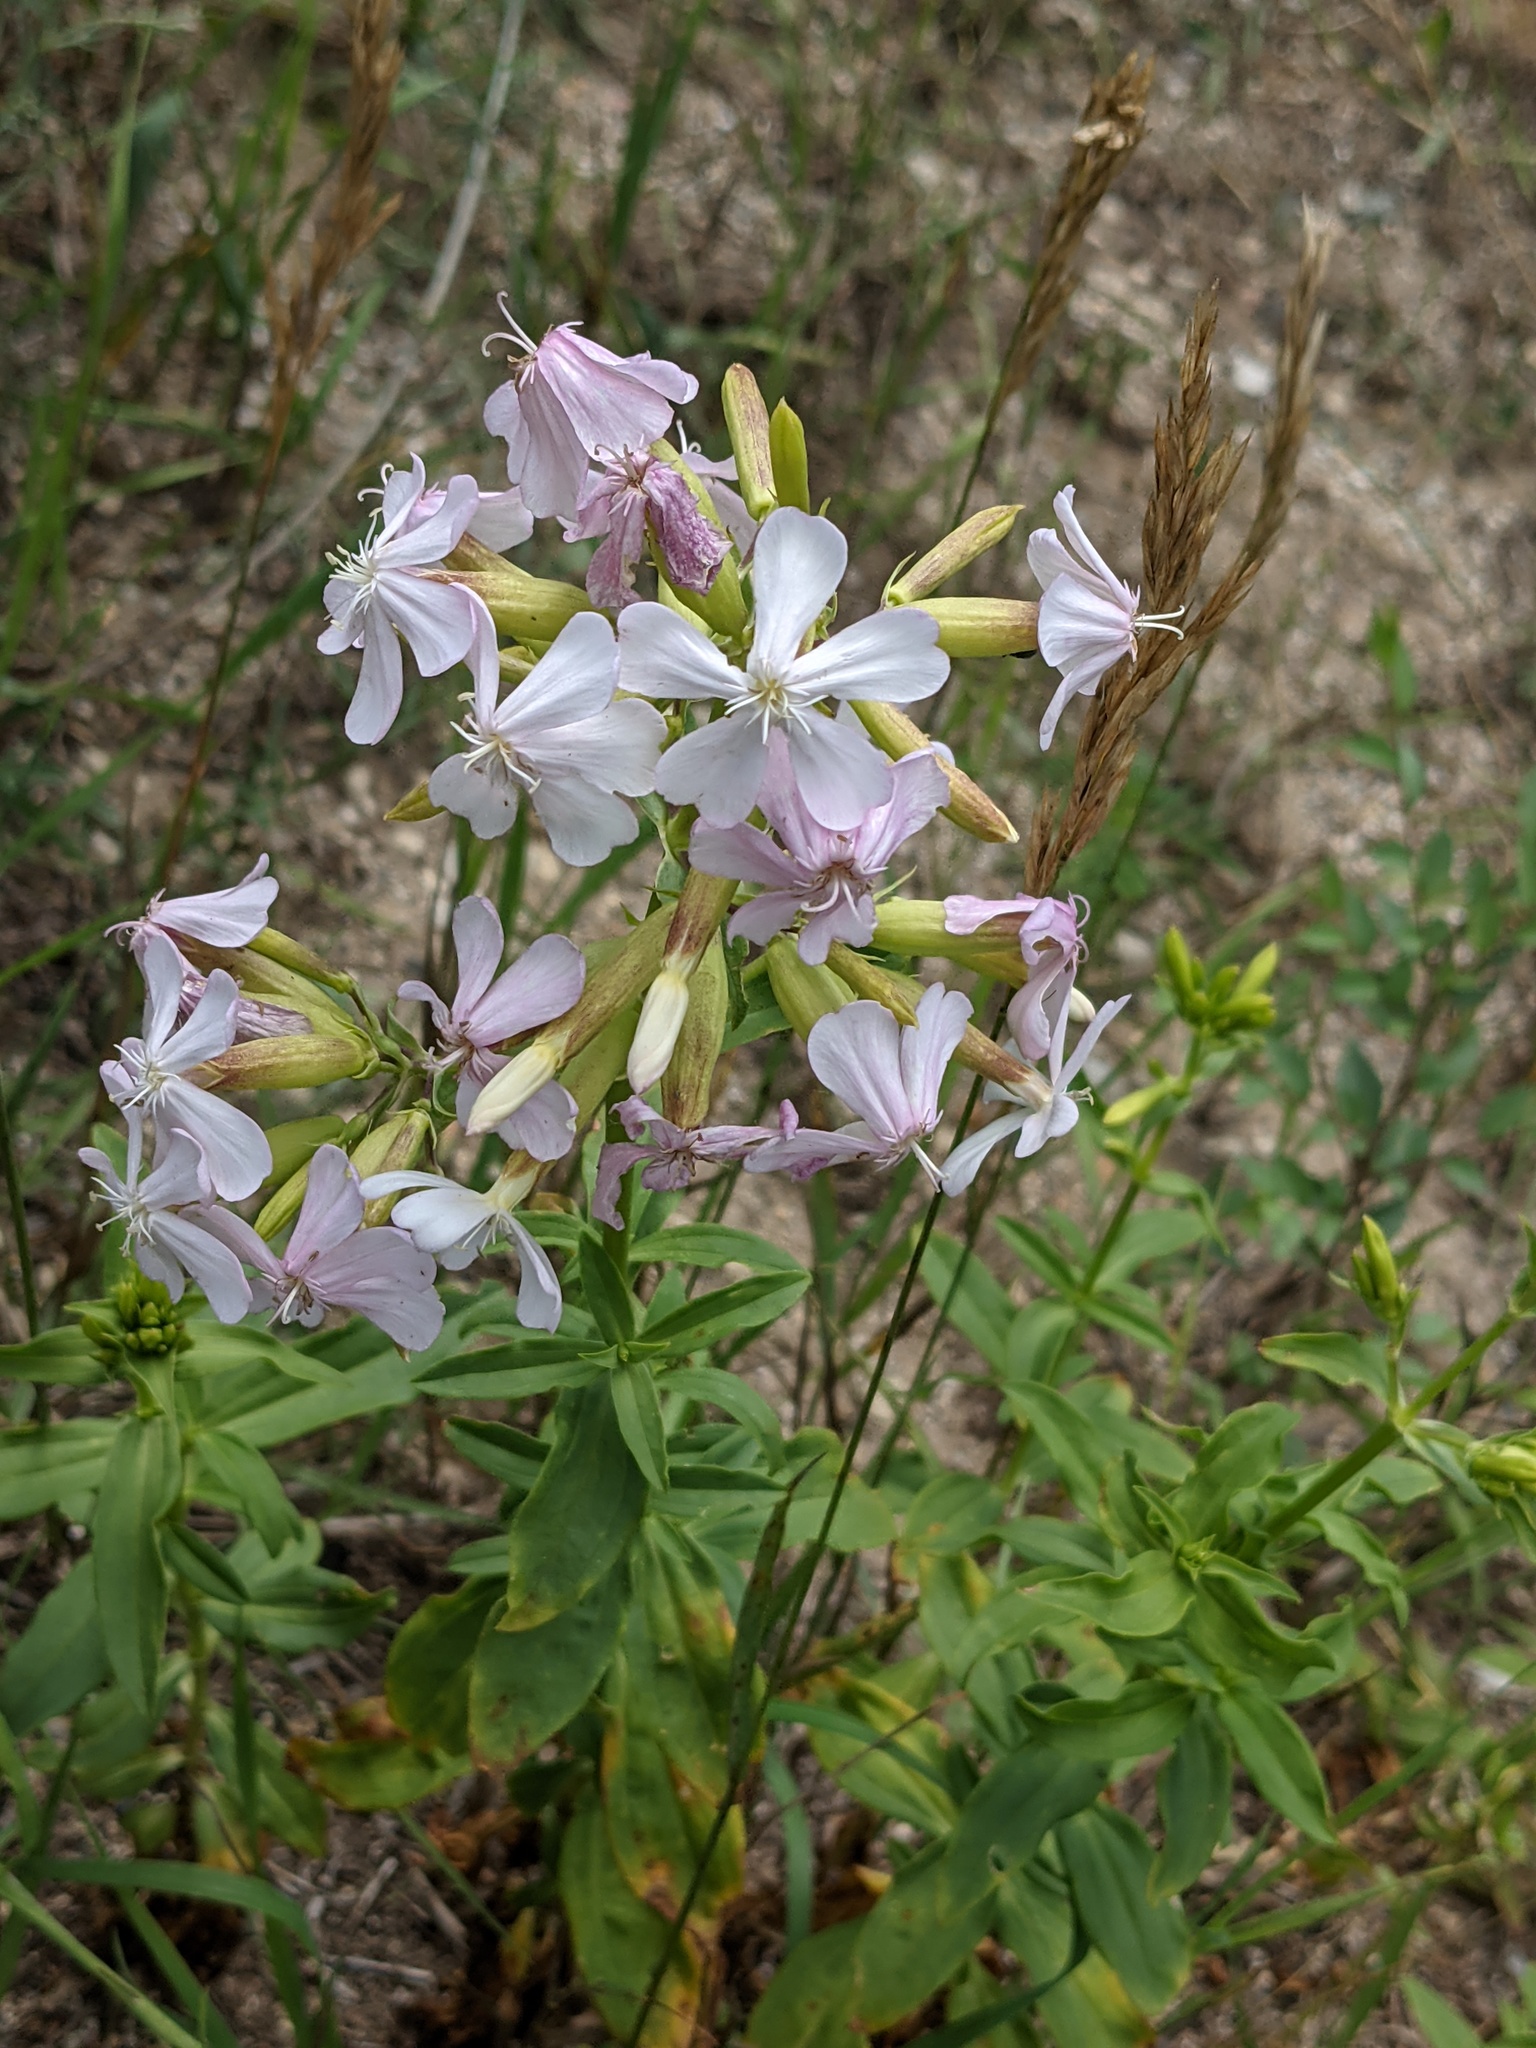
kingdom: Plantae
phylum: Tracheophyta
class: Magnoliopsida
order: Caryophyllales
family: Caryophyllaceae
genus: Saponaria
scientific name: Saponaria officinalis
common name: Soapwort
